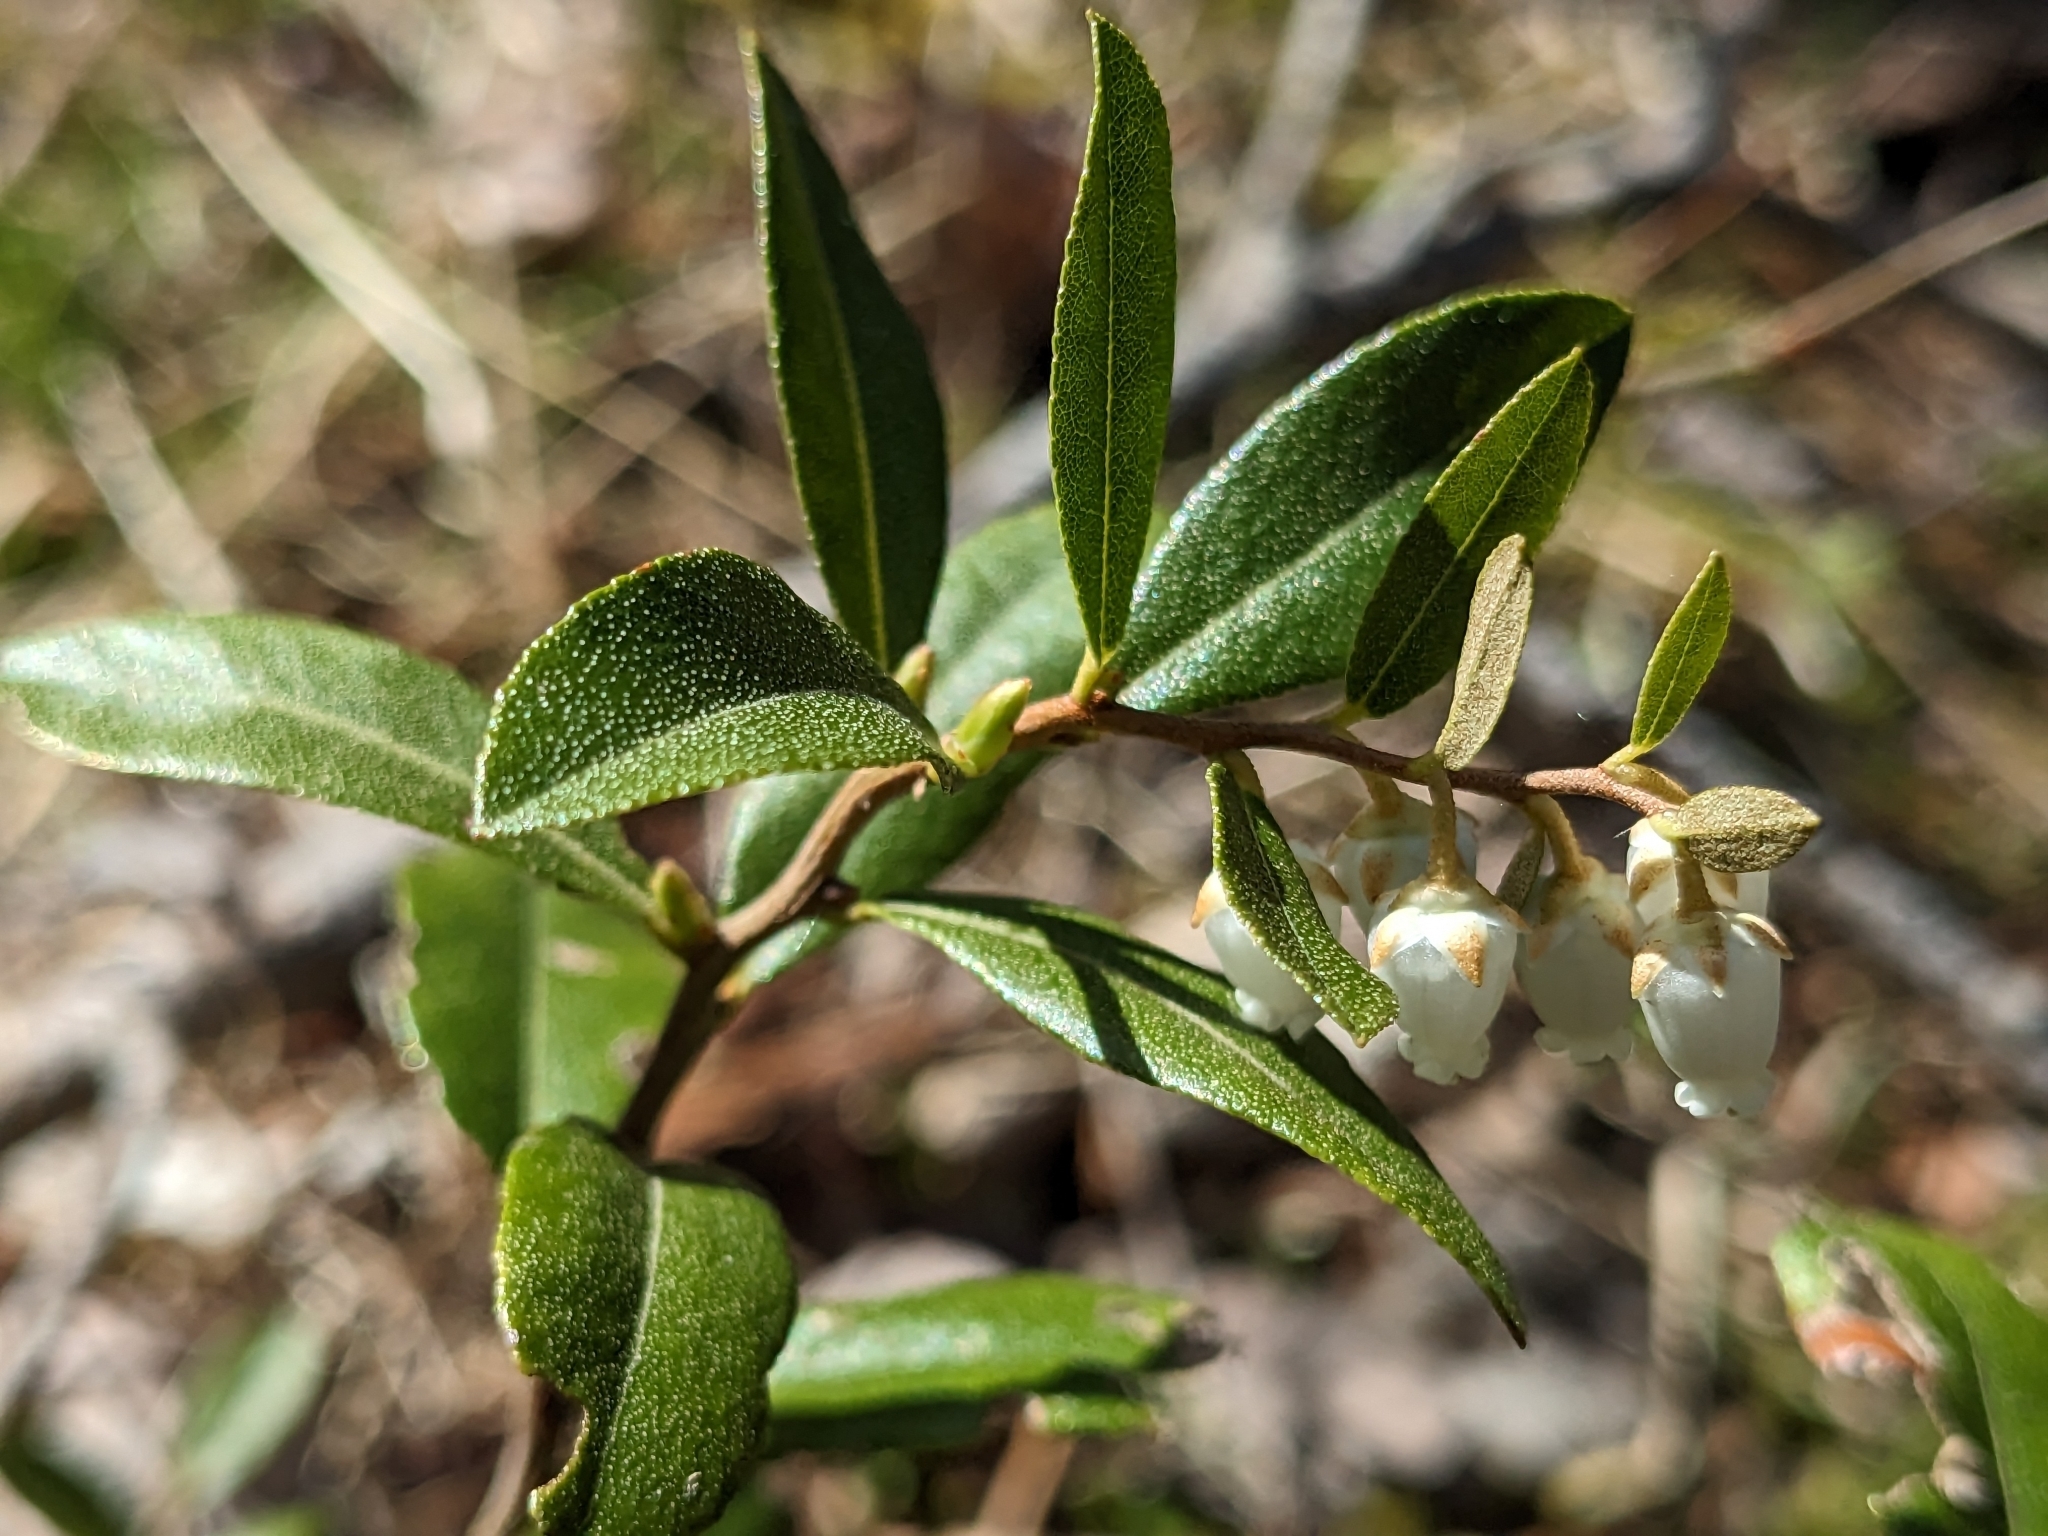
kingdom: Plantae
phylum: Tracheophyta
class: Magnoliopsida
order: Ericales
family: Ericaceae
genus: Chamaedaphne
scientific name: Chamaedaphne calyculata
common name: Leatherleaf
